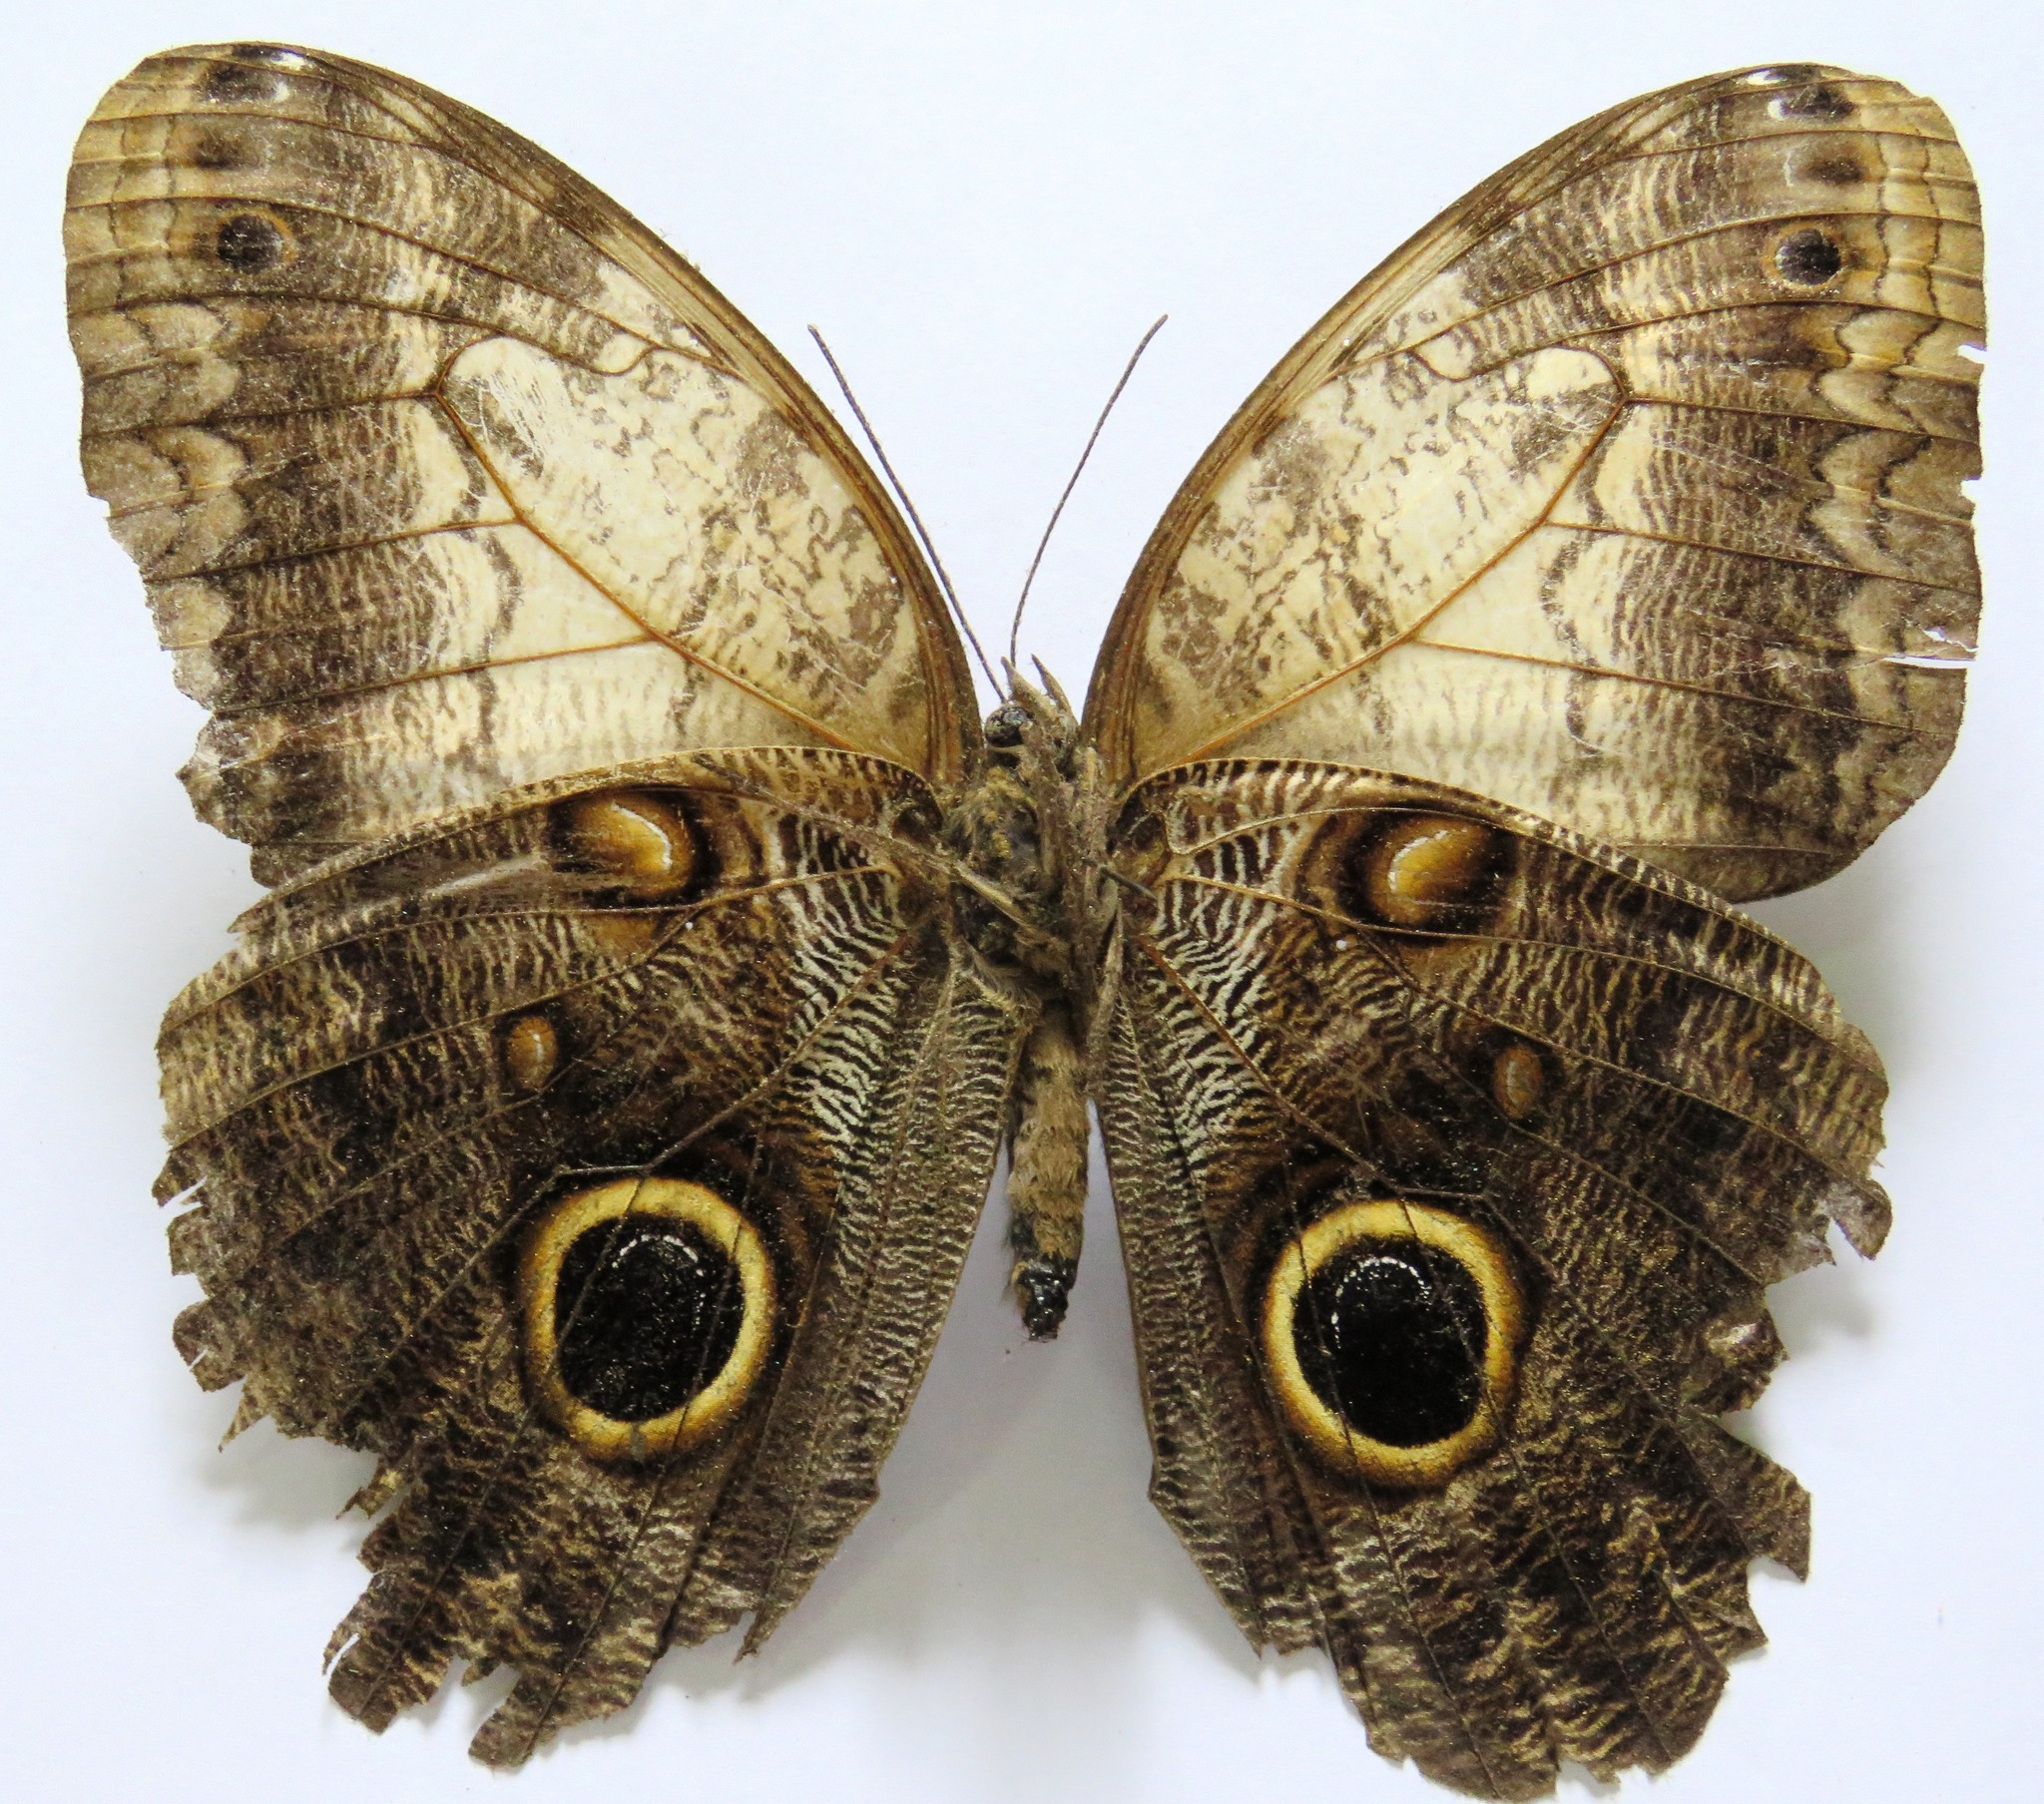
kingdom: Animalia
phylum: Arthropoda
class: Insecta
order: Lepidoptera
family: Nymphalidae
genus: Caligo
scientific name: Caligo telamonius
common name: Pale owl-butterfly
